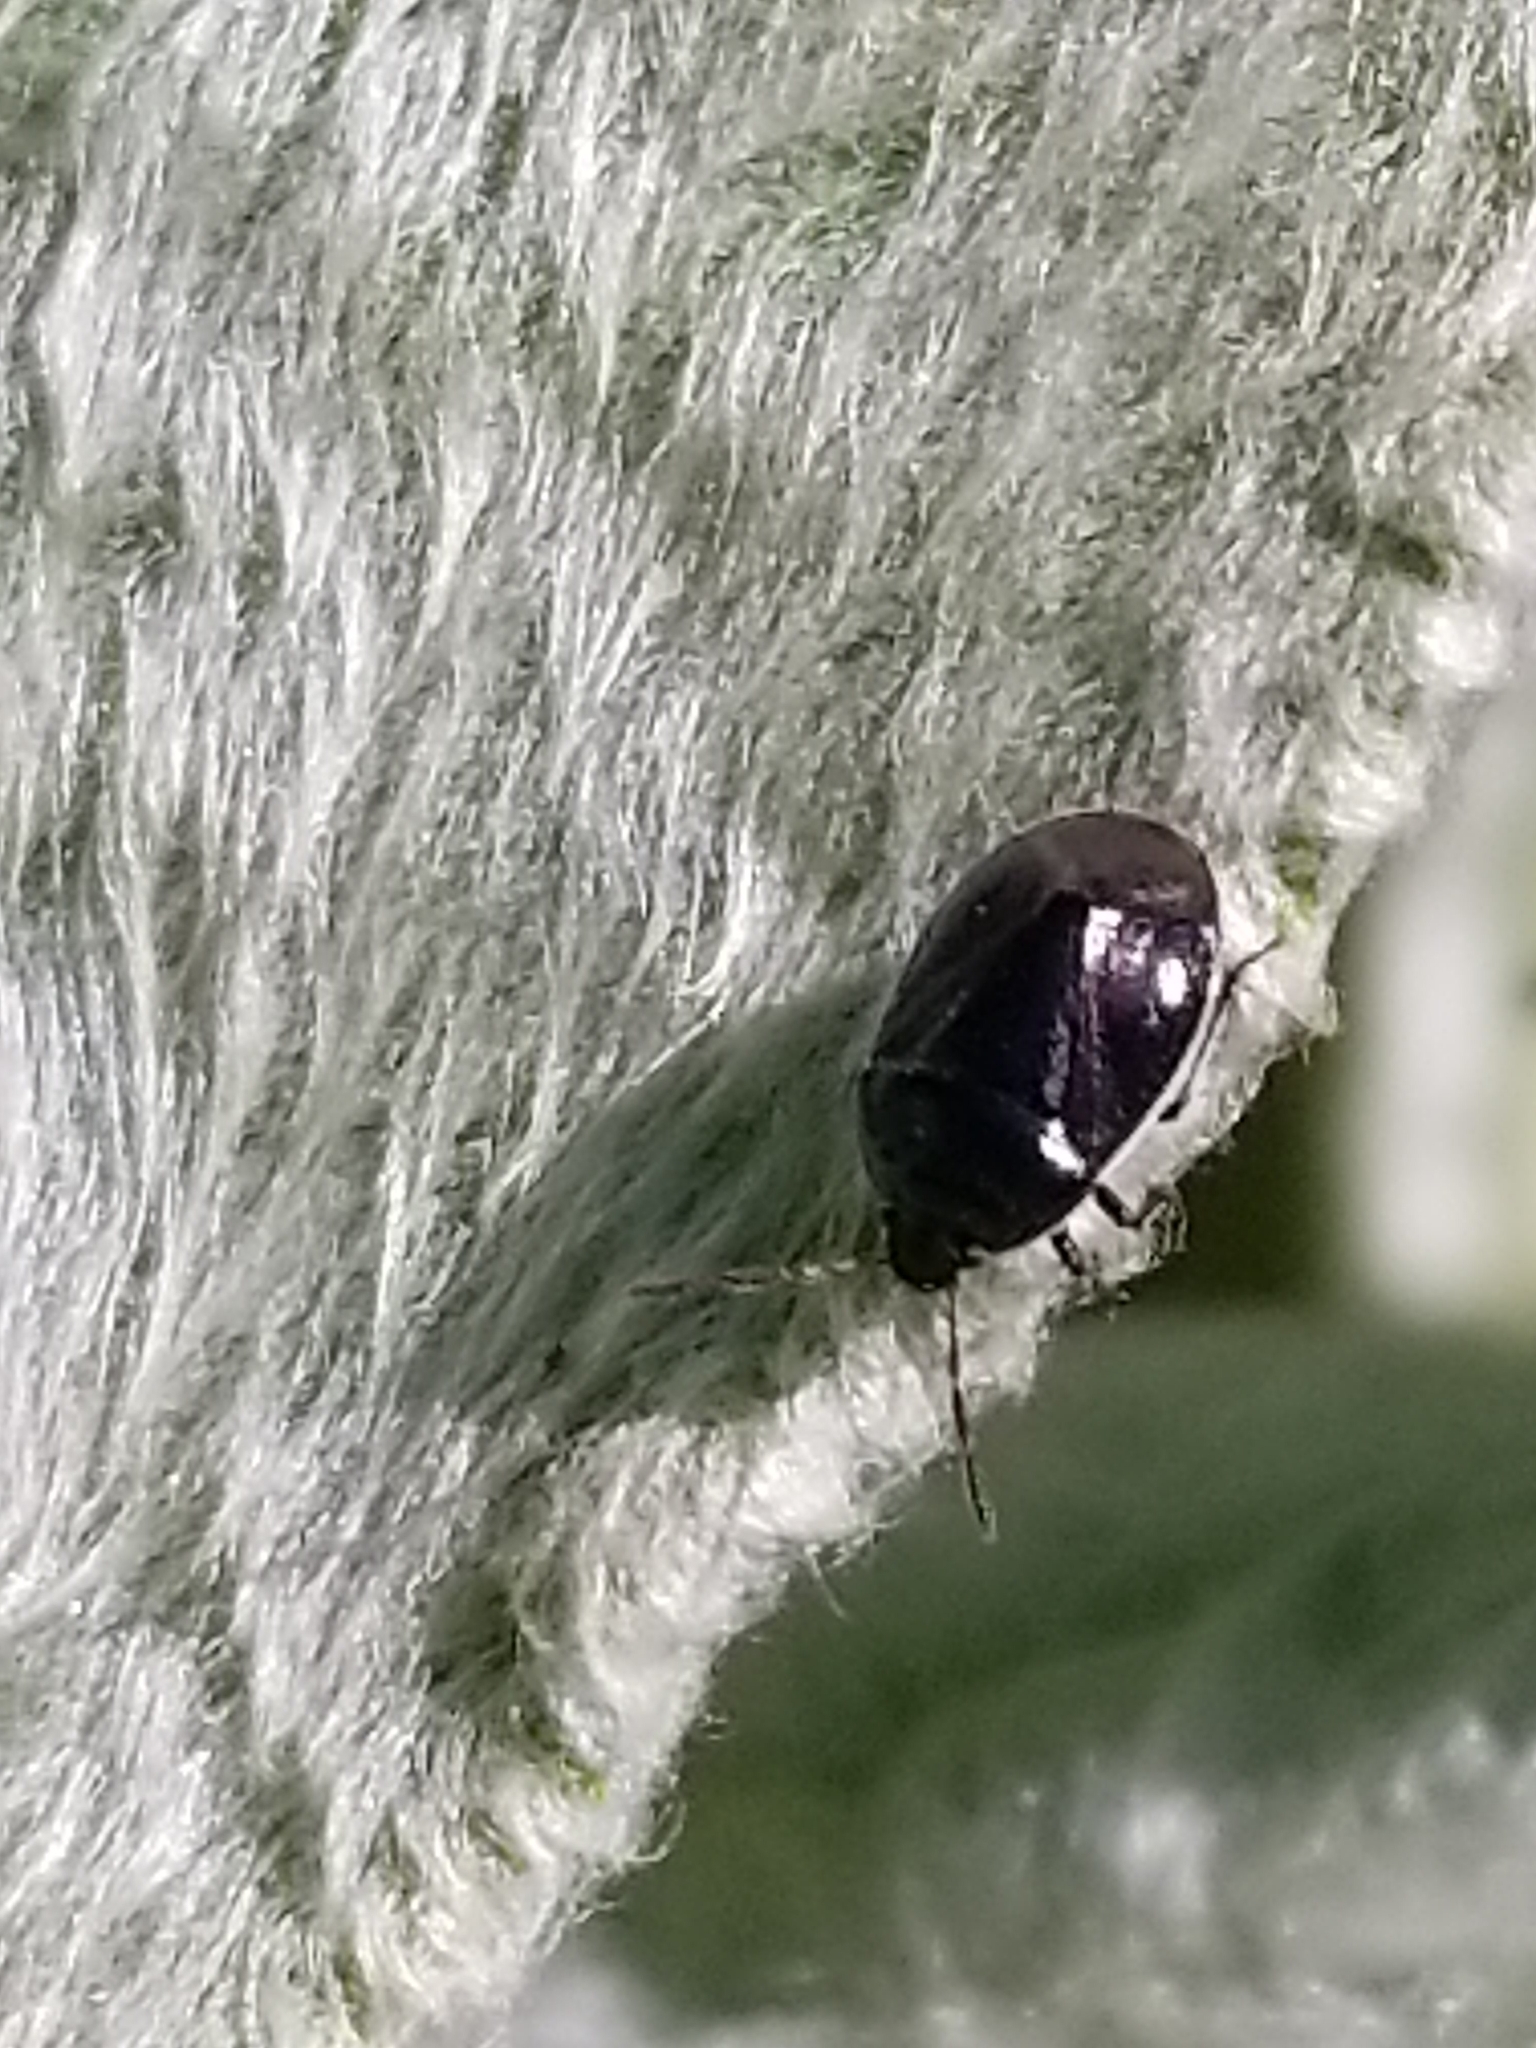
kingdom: Animalia
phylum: Arthropoda
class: Insecta
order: Hemiptera
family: Cydnidae
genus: Sehirus
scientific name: Sehirus cinctus
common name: White-margined burrower bug
